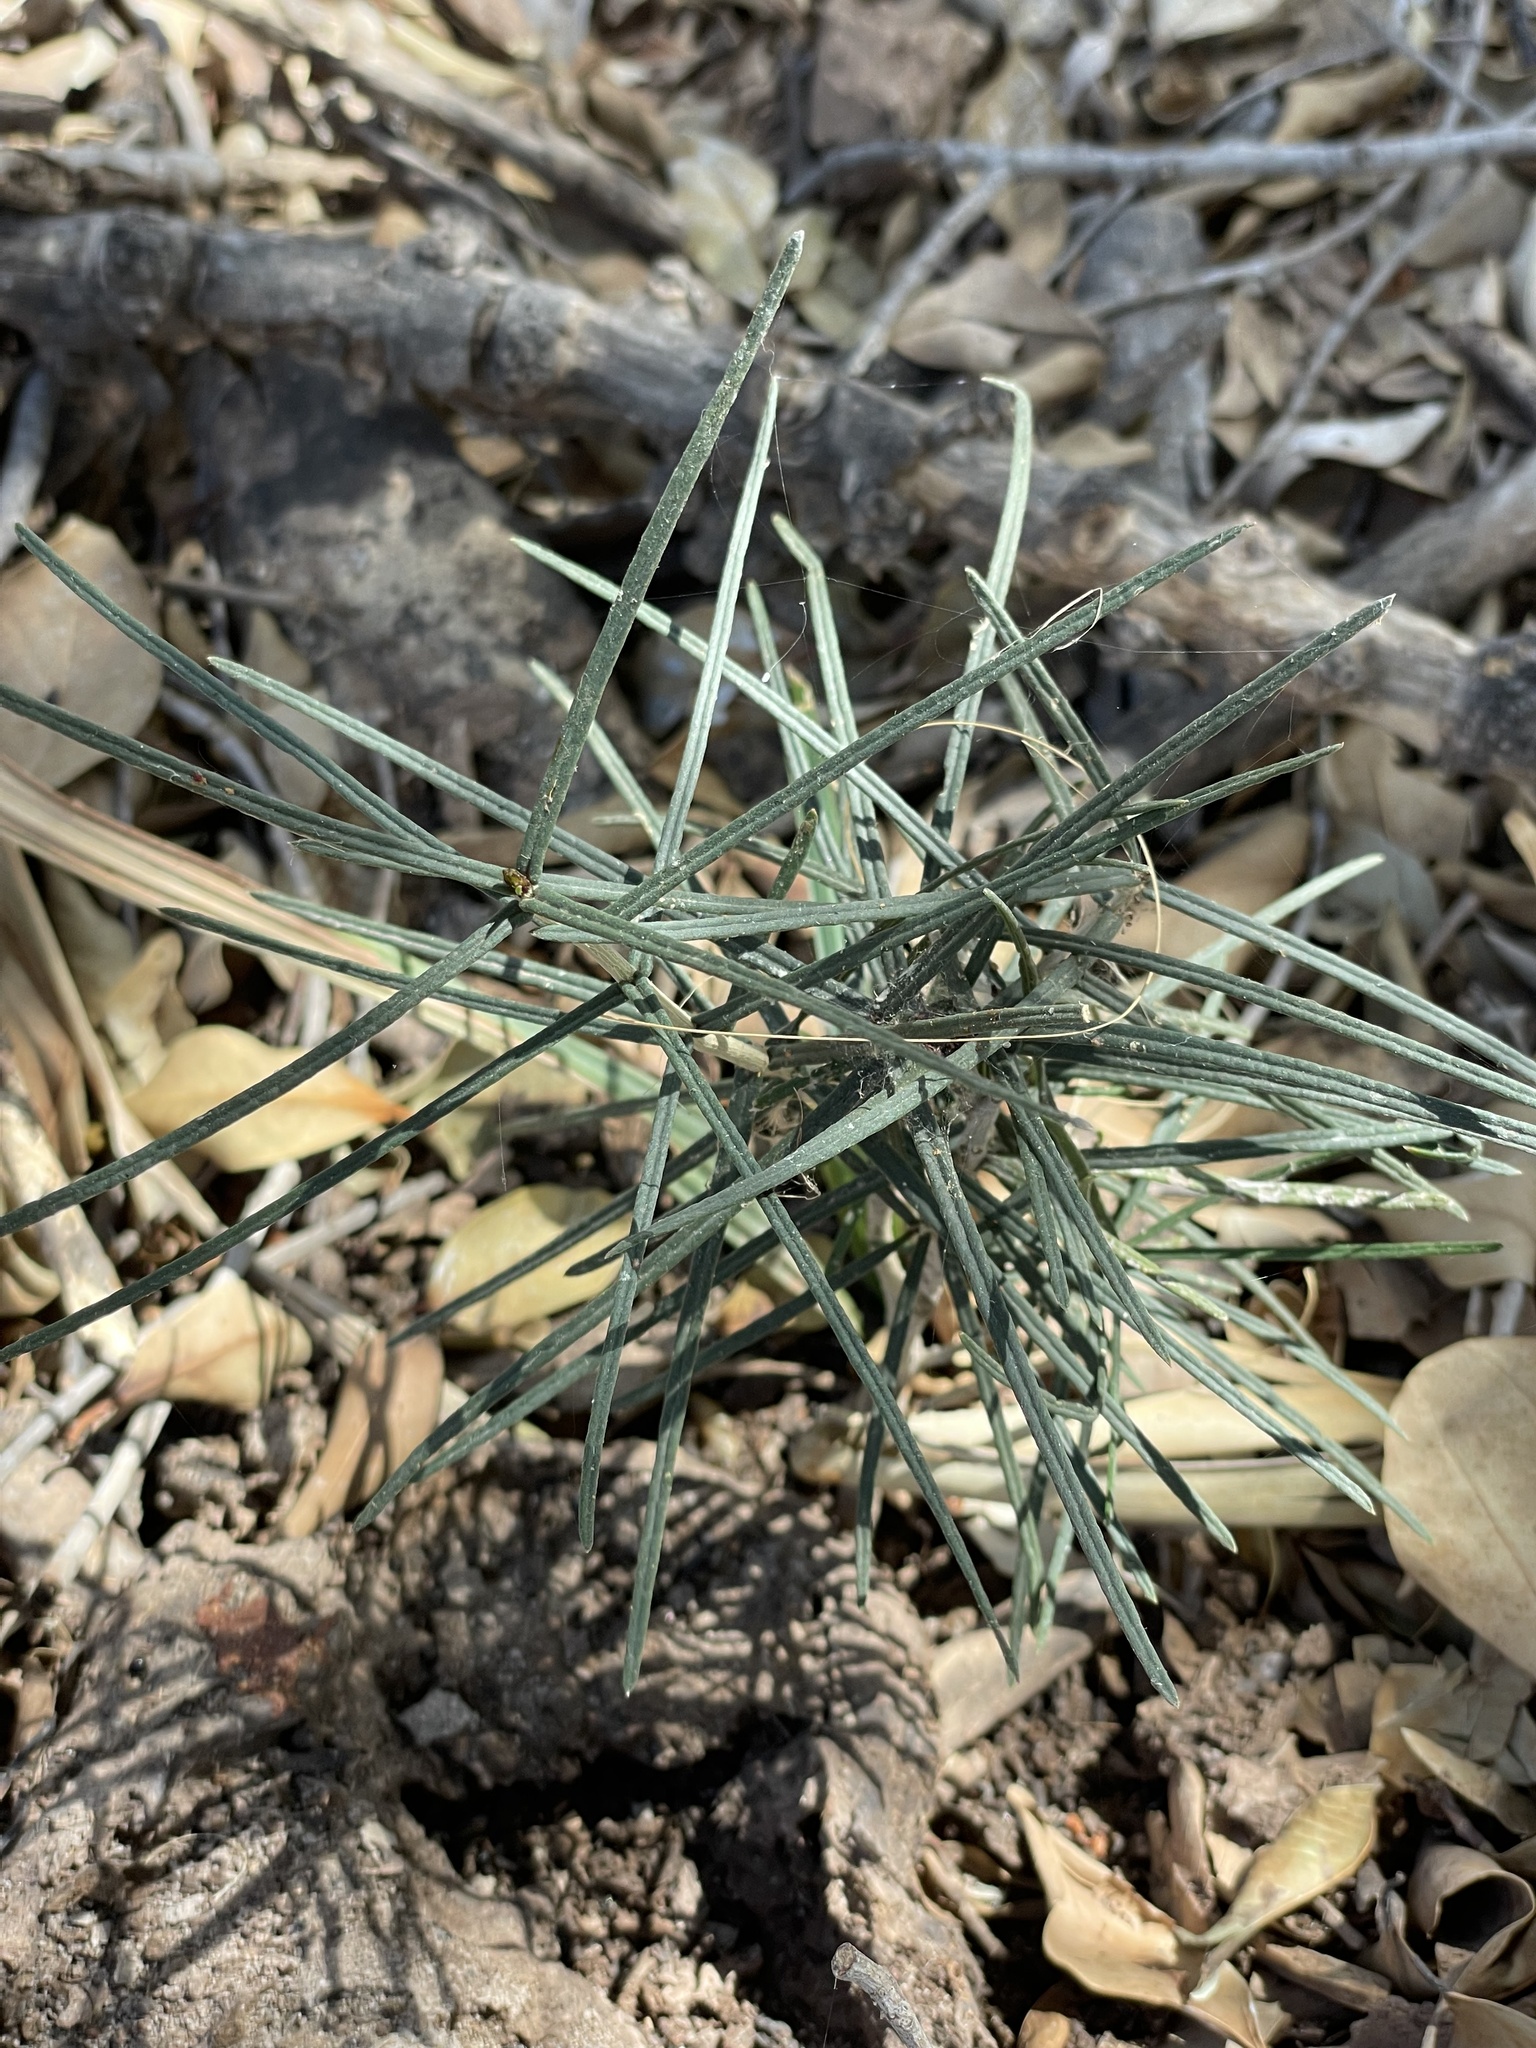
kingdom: Plantae
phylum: Tracheophyta
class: Magnoliopsida
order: Brassicales
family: Stixaceae
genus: Forchhammeria
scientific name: Forchhammeria watsonii
